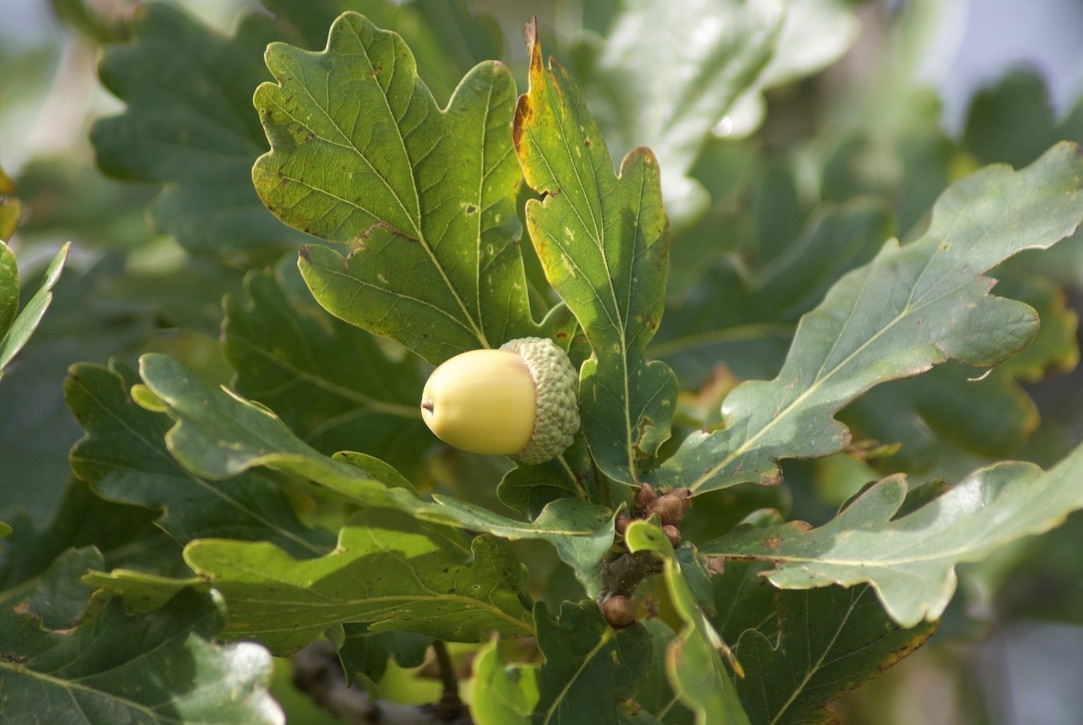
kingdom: Plantae
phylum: Tracheophyta
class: Magnoliopsida
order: Fagales
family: Fagaceae
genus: Quercus
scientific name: Quercus robur
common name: Pedunculate oak
